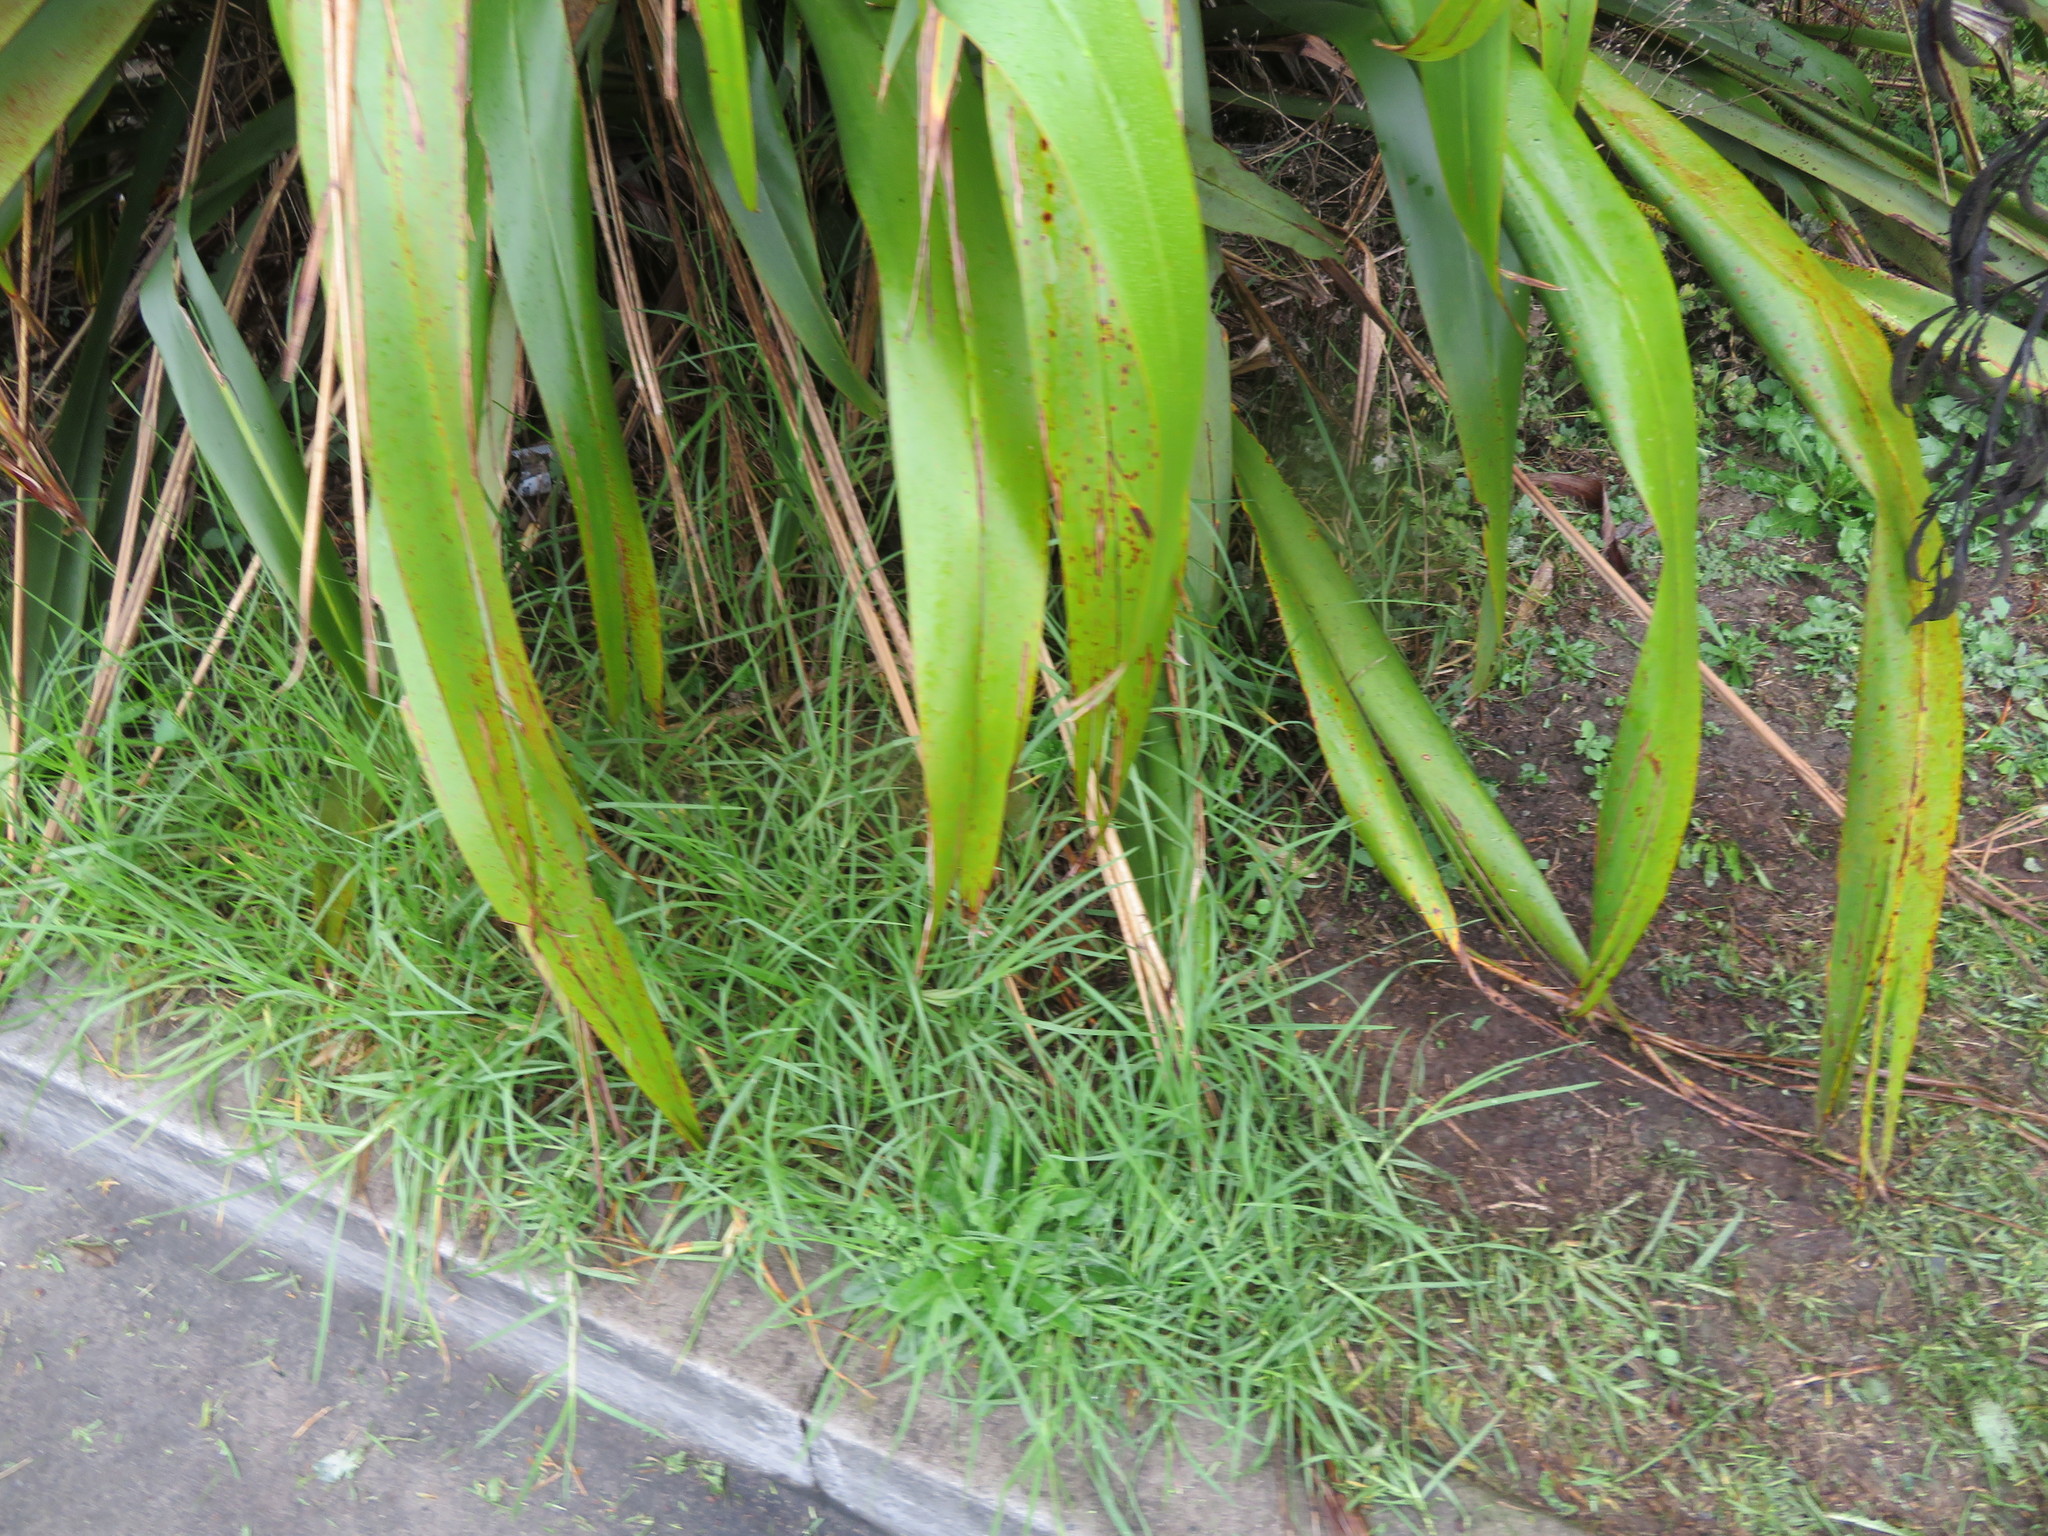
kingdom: Plantae
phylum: Tracheophyta
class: Liliopsida
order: Poales
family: Poaceae
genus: Cenchrus
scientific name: Cenchrus clandestinus
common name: Kikuyugrass
